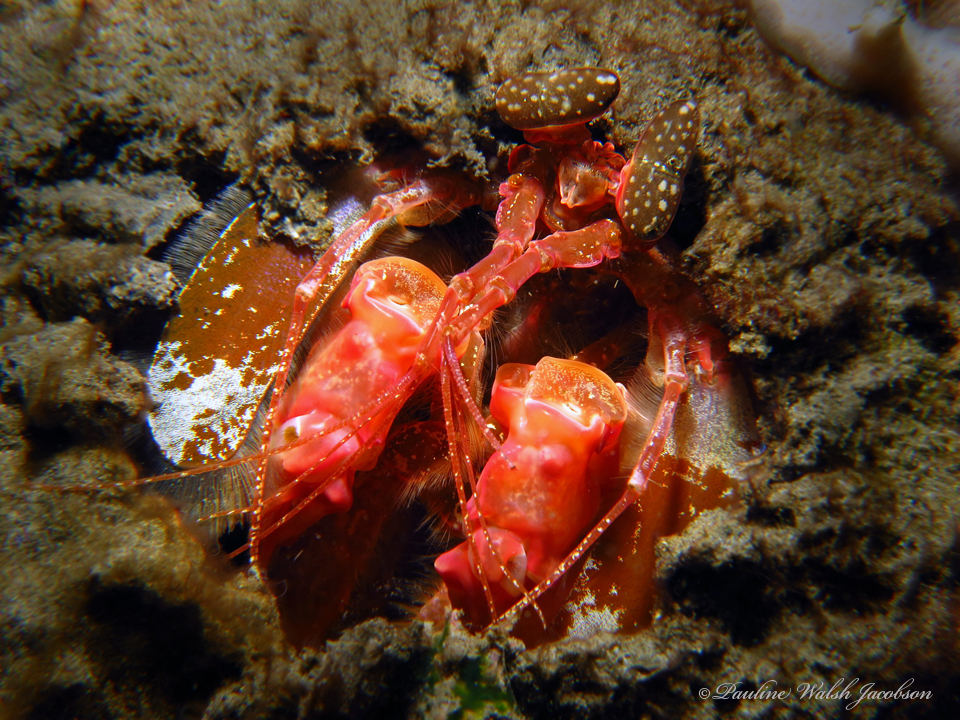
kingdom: Animalia
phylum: Arthropoda
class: Malacostraca
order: Stomatopoda
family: Lysiosquillidae
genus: Lysiosquilla
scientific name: Lysiosquilla lisa
